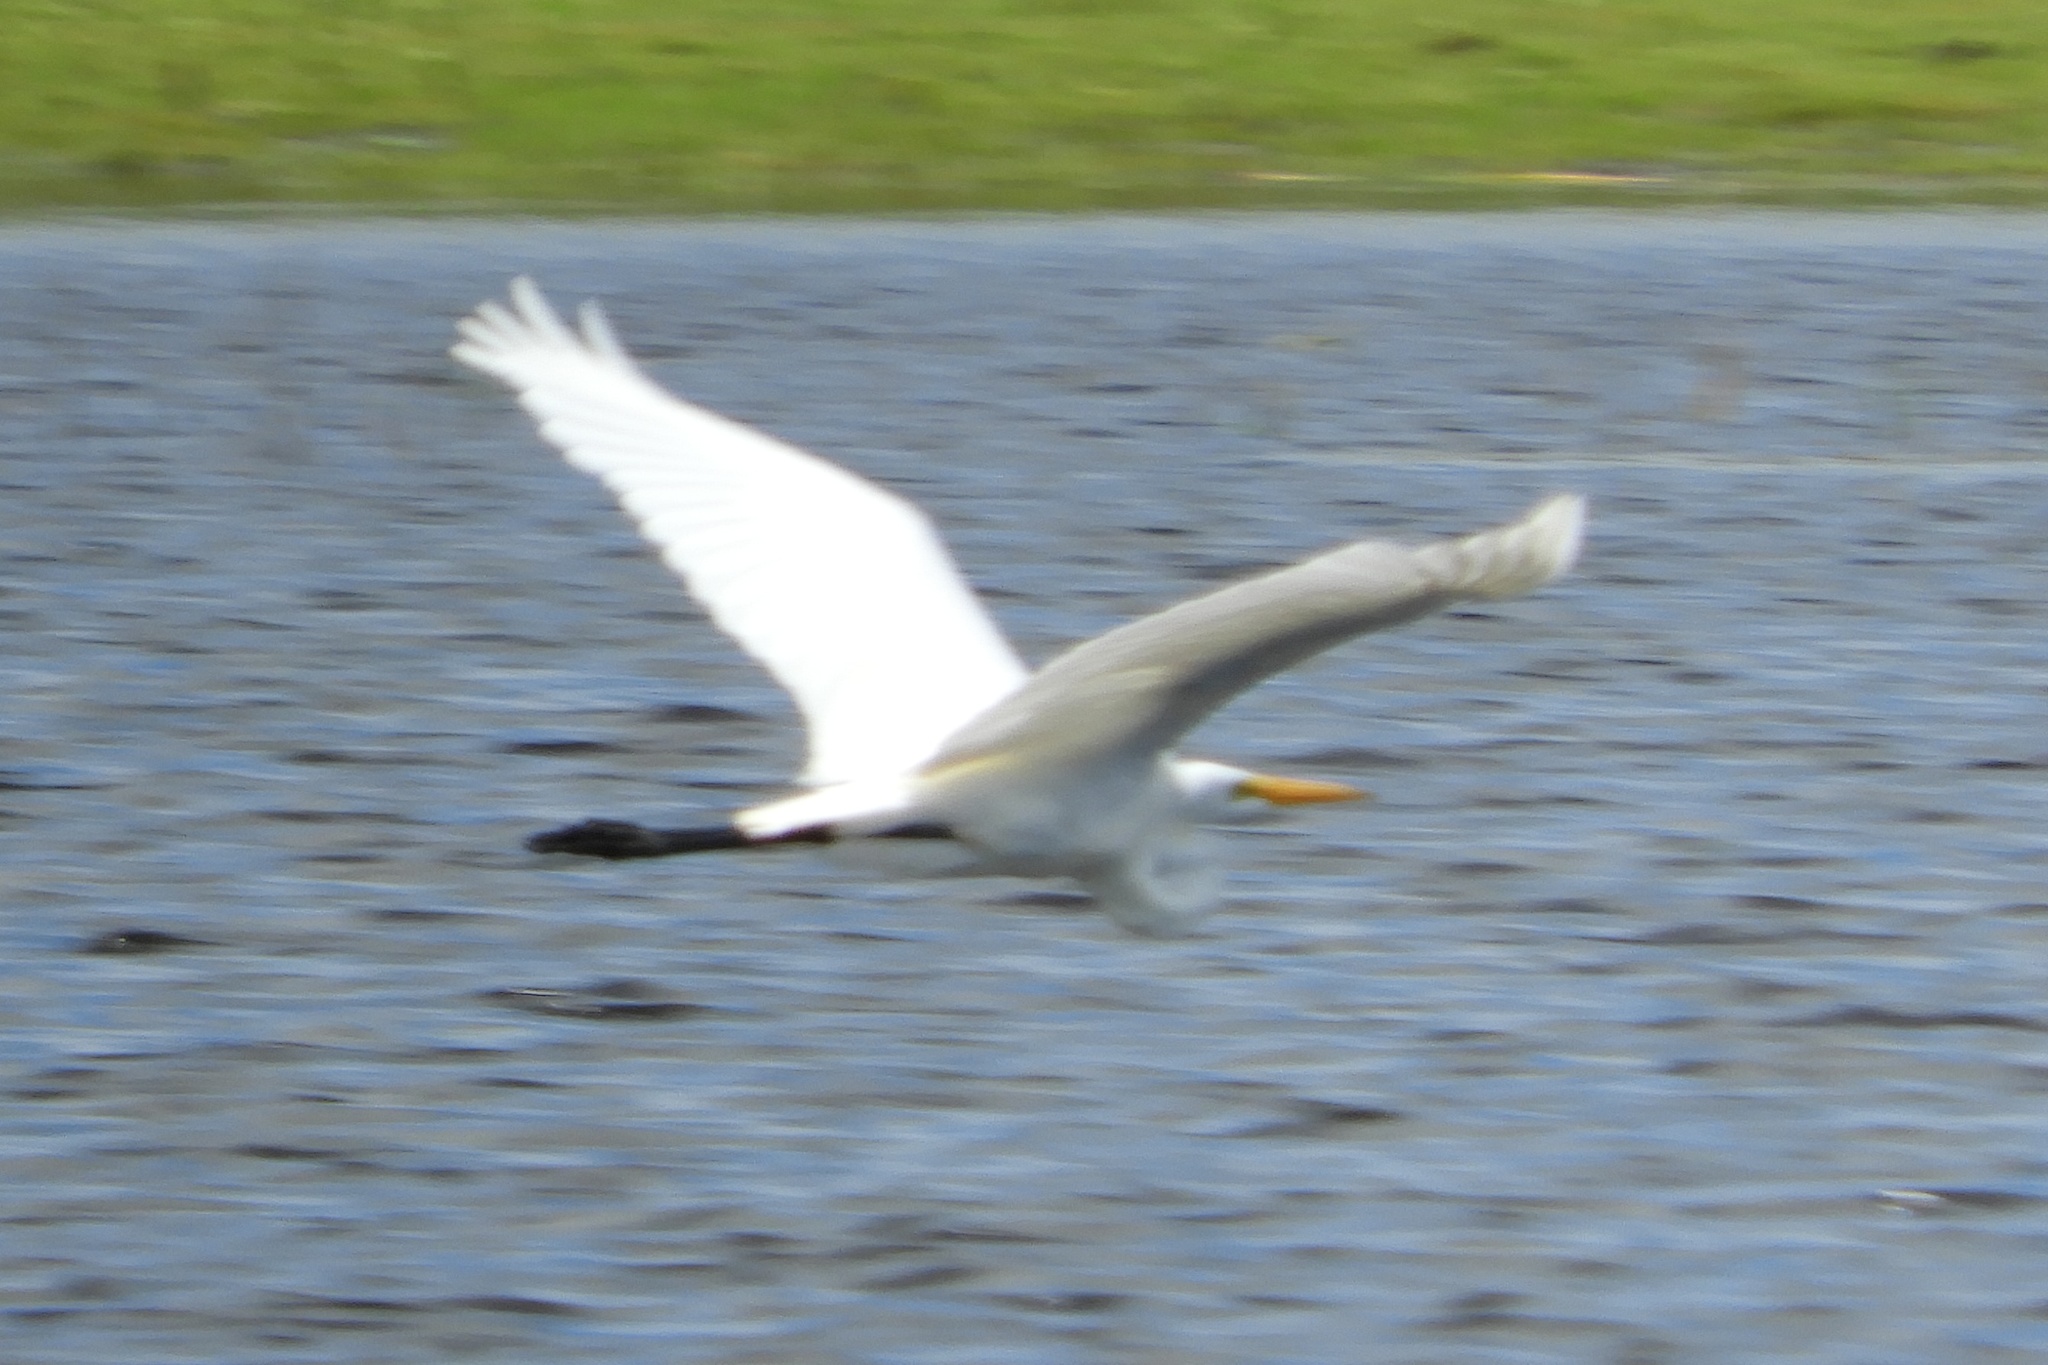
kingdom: Animalia
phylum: Chordata
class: Aves
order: Pelecaniformes
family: Ardeidae
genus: Ardea
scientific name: Ardea alba
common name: Great egret
